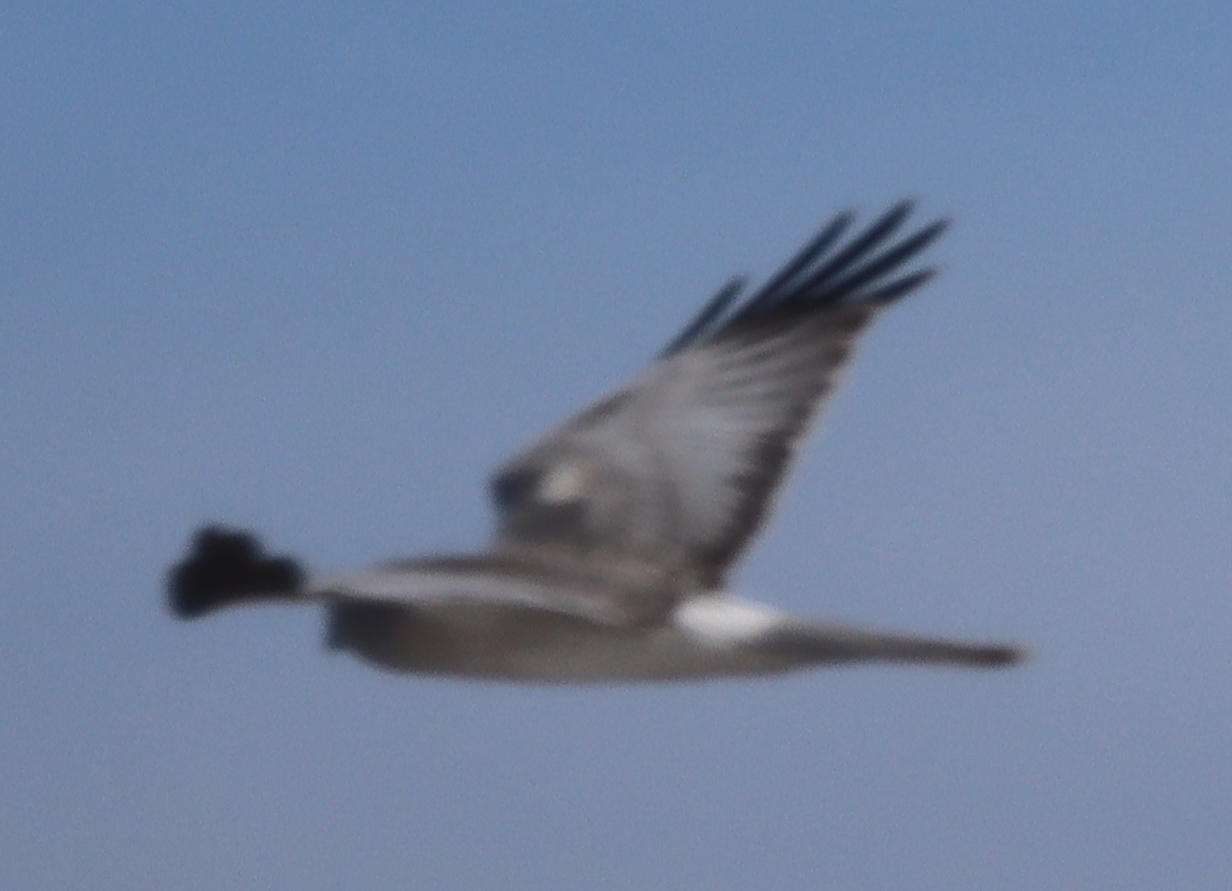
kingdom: Animalia
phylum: Chordata
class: Aves
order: Accipitriformes
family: Accipitridae
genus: Circus
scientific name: Circus cyaneus
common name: Hen harrier
